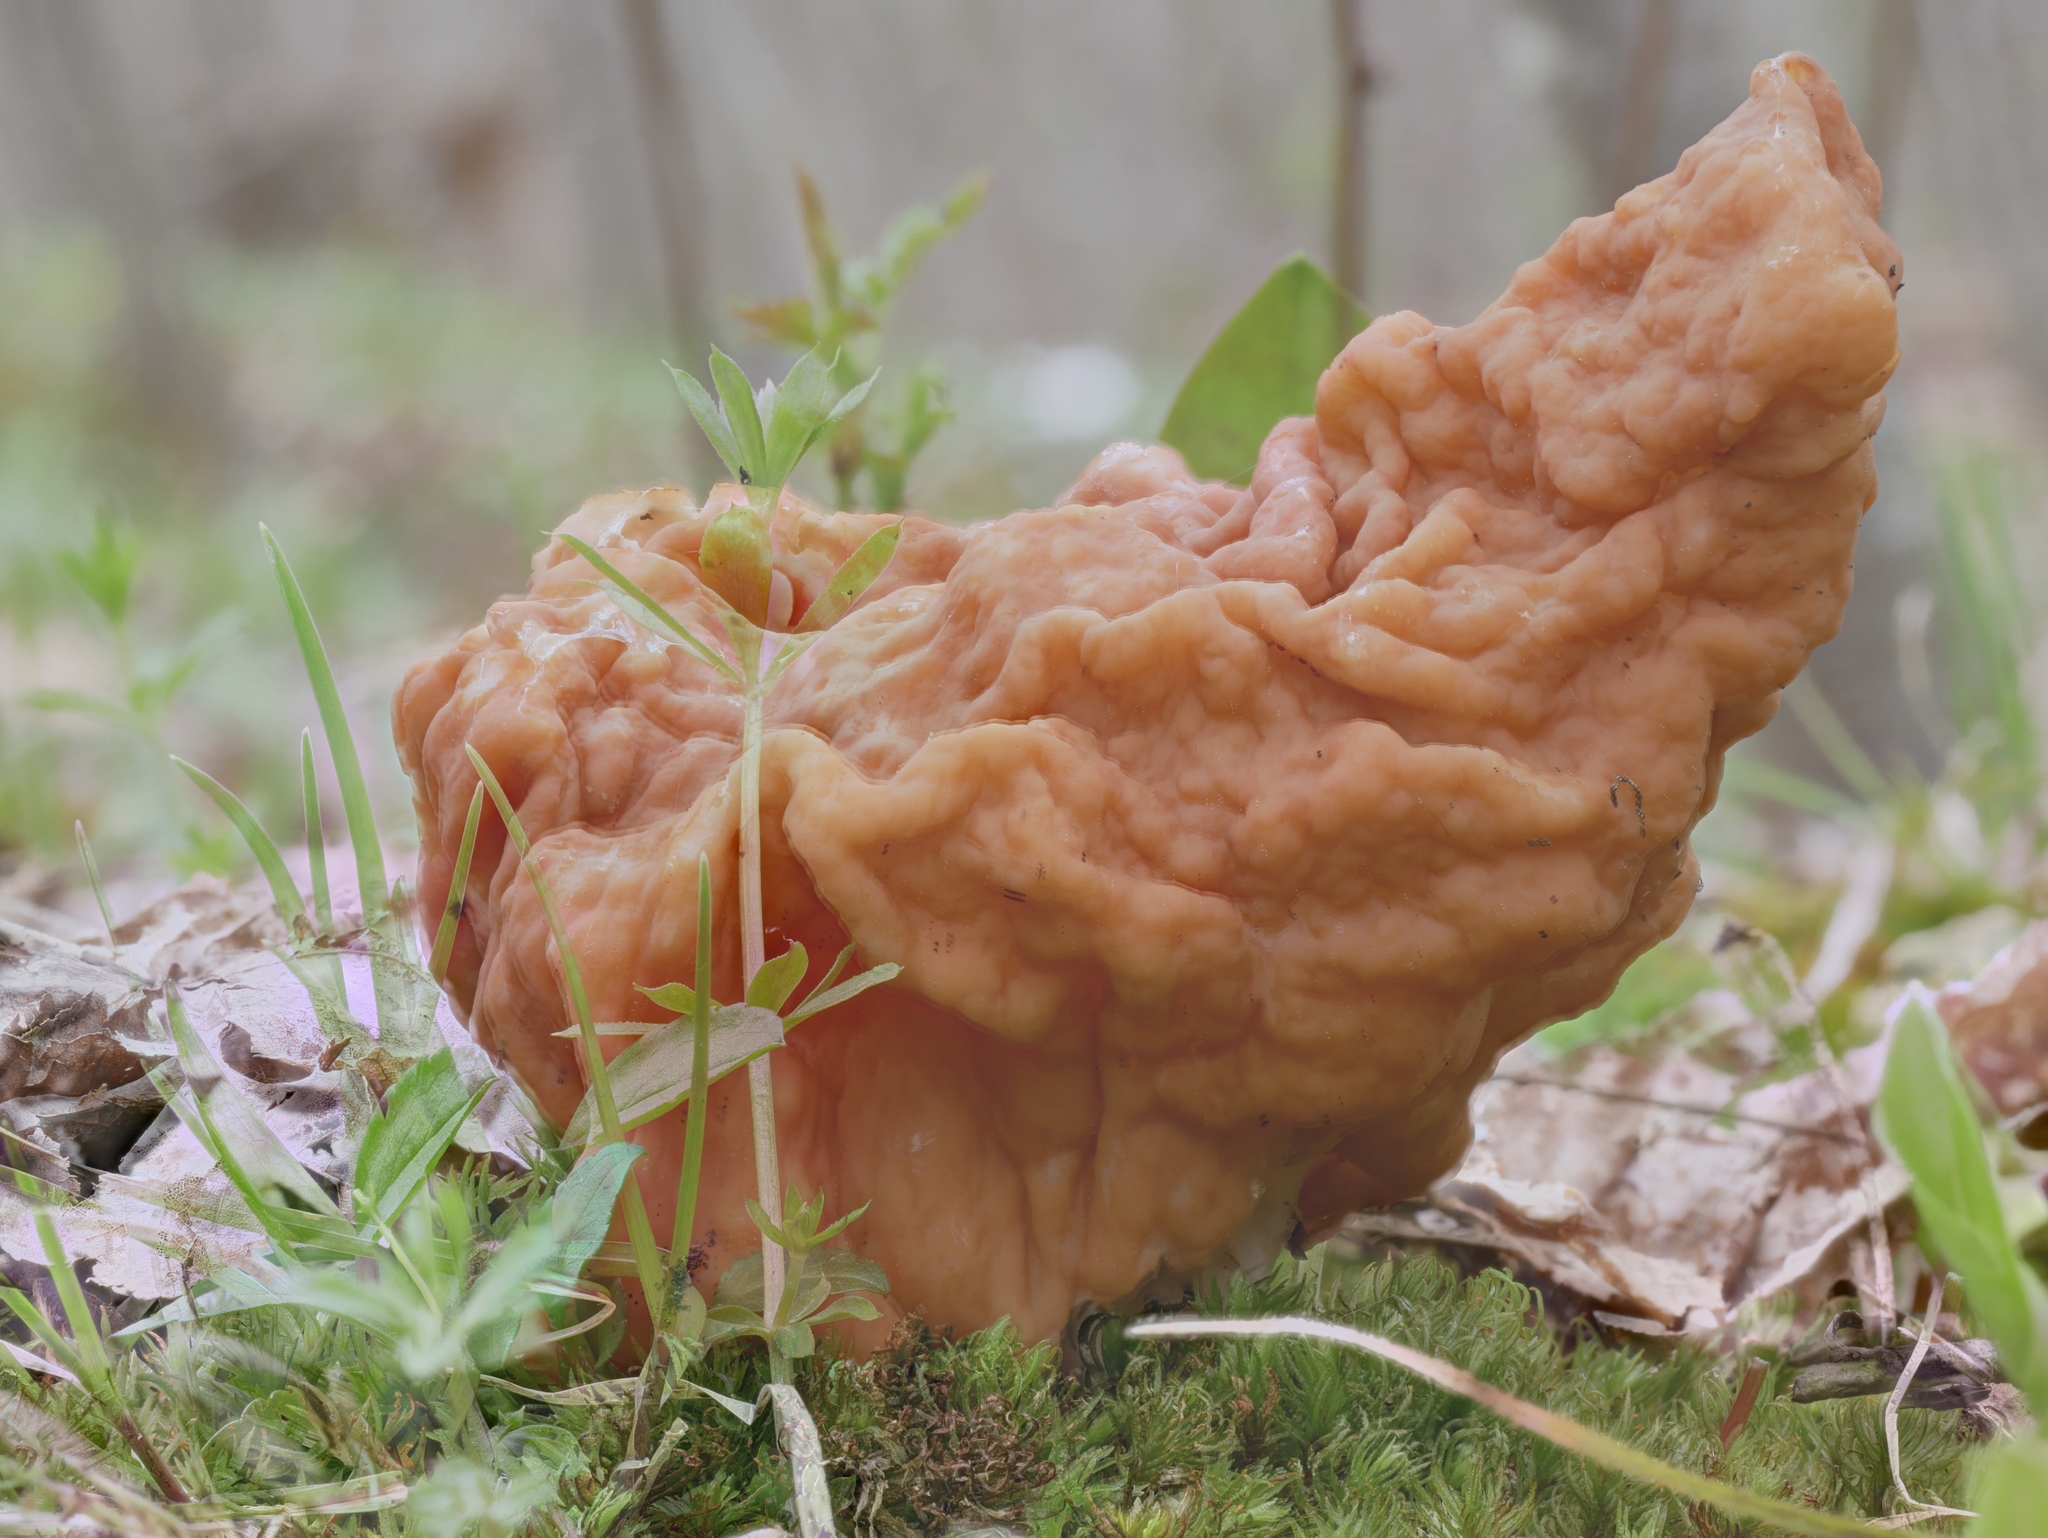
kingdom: Fungi
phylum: Ascomycota
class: Pezizomycetes
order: Pezizales
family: Discinaceae
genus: Gyromitra
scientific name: Gyromitra korfii
